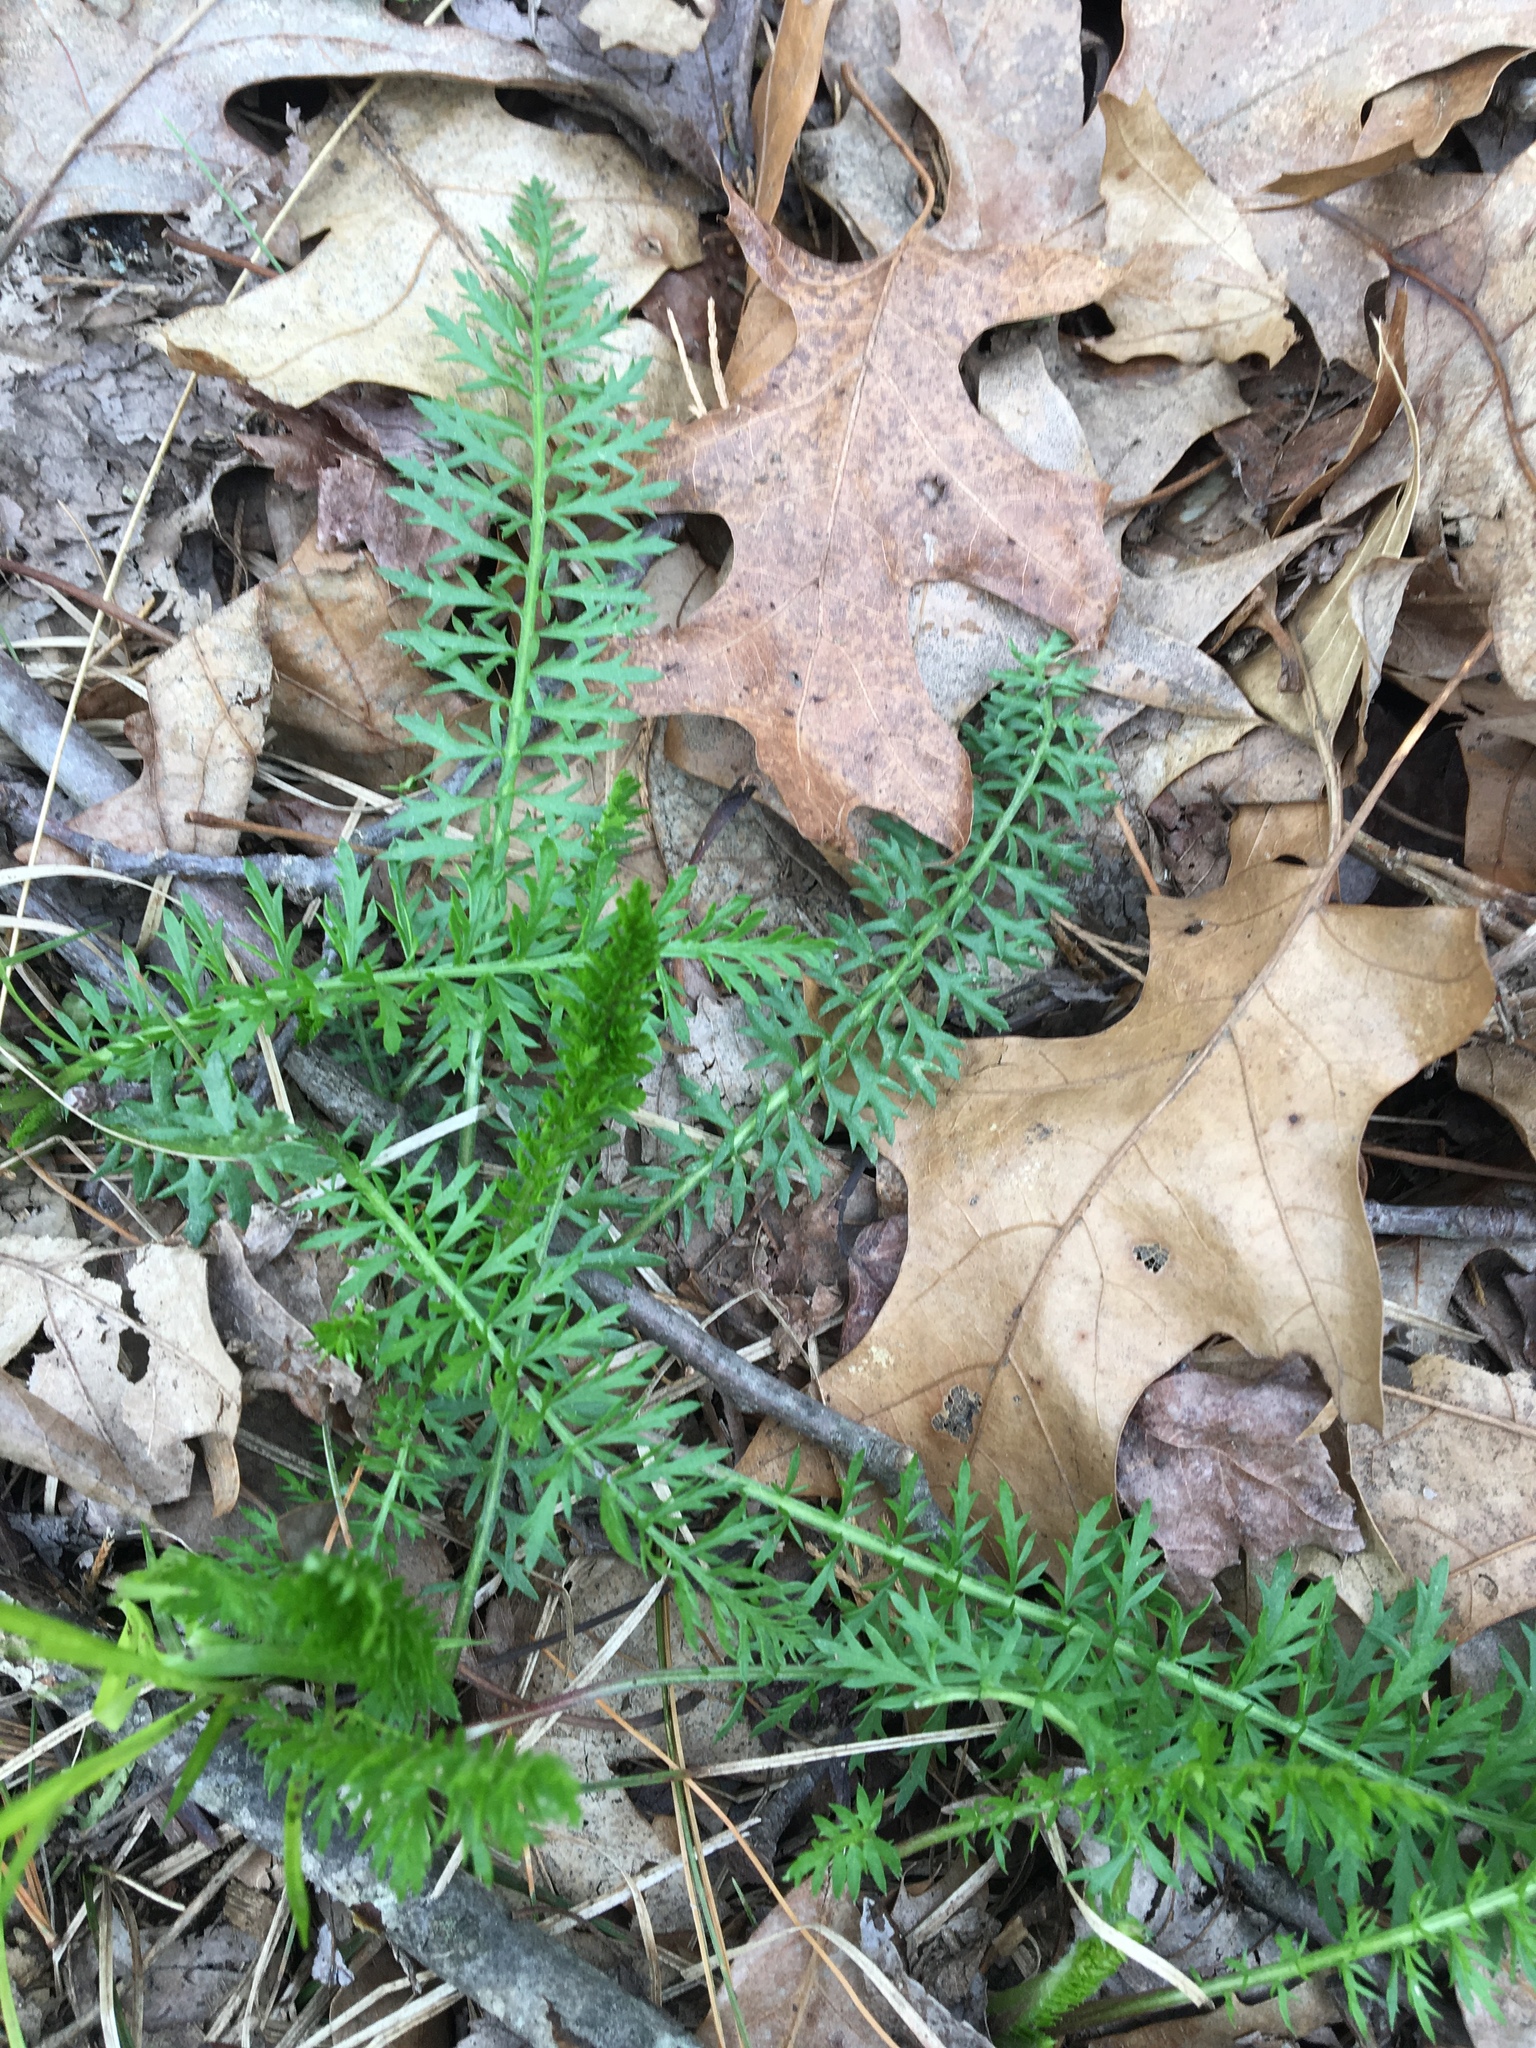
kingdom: Plantae
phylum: Tracheophyta
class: Magnoliopsida
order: Apiales
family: Apiaceae
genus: Daucus
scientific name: Daucus carota
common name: Wild carrot
